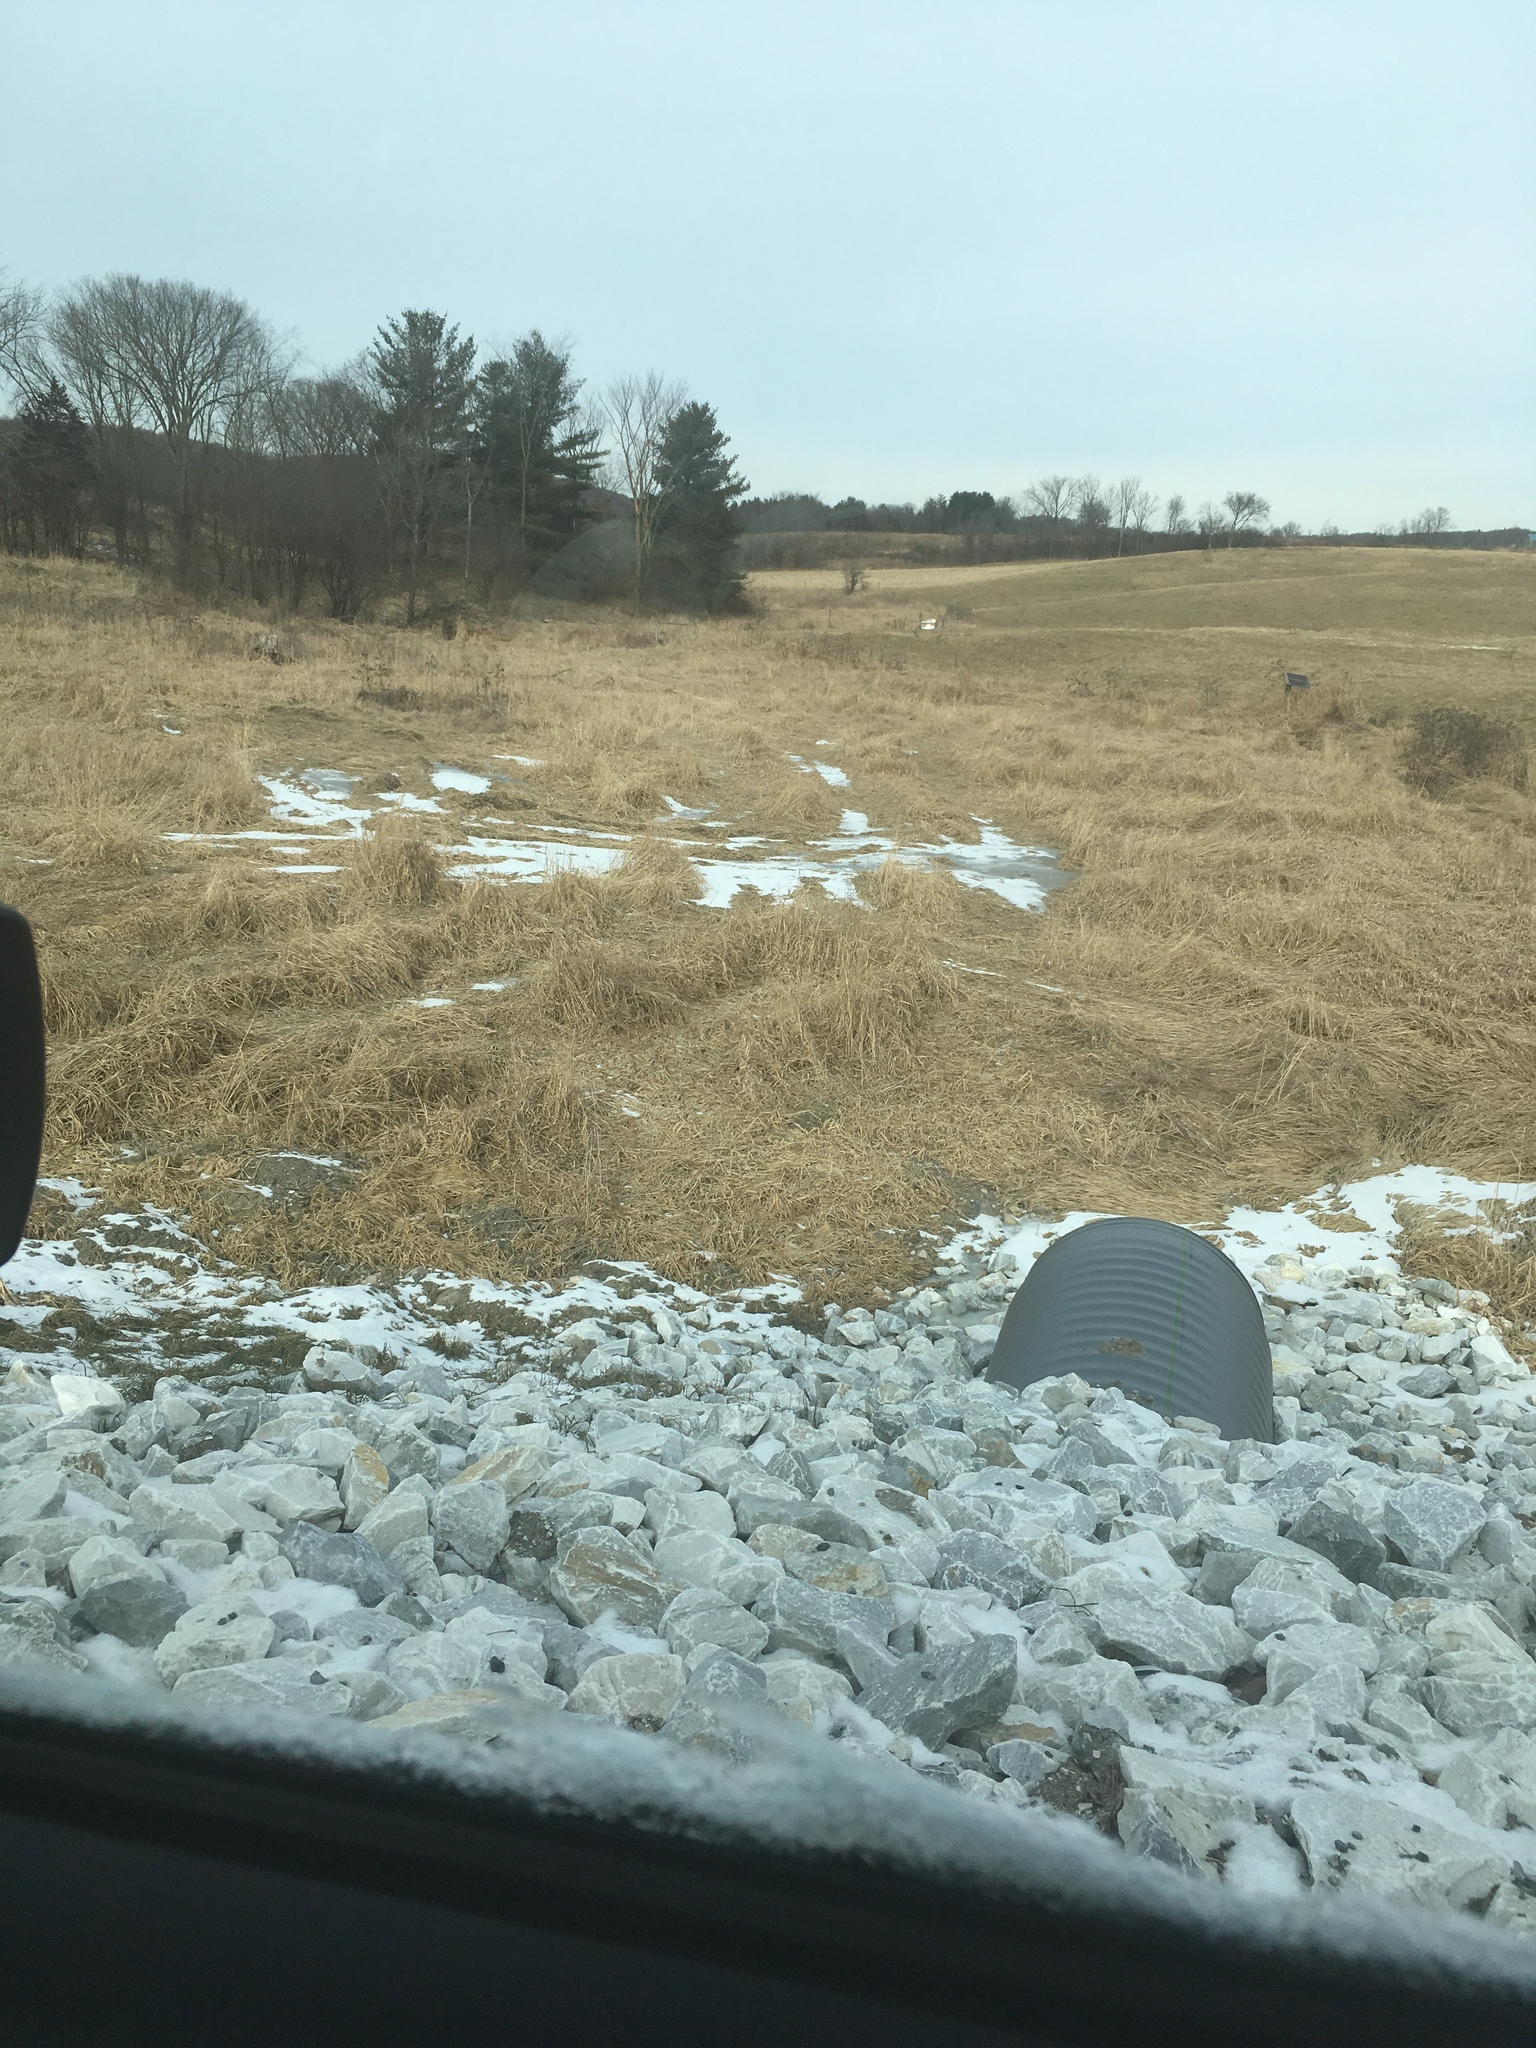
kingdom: Plantae
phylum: Tracheophyta
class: Pinopsida
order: Pinales
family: Pinaceae
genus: Pinus
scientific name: Pinus strobus
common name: Weymouth pine
